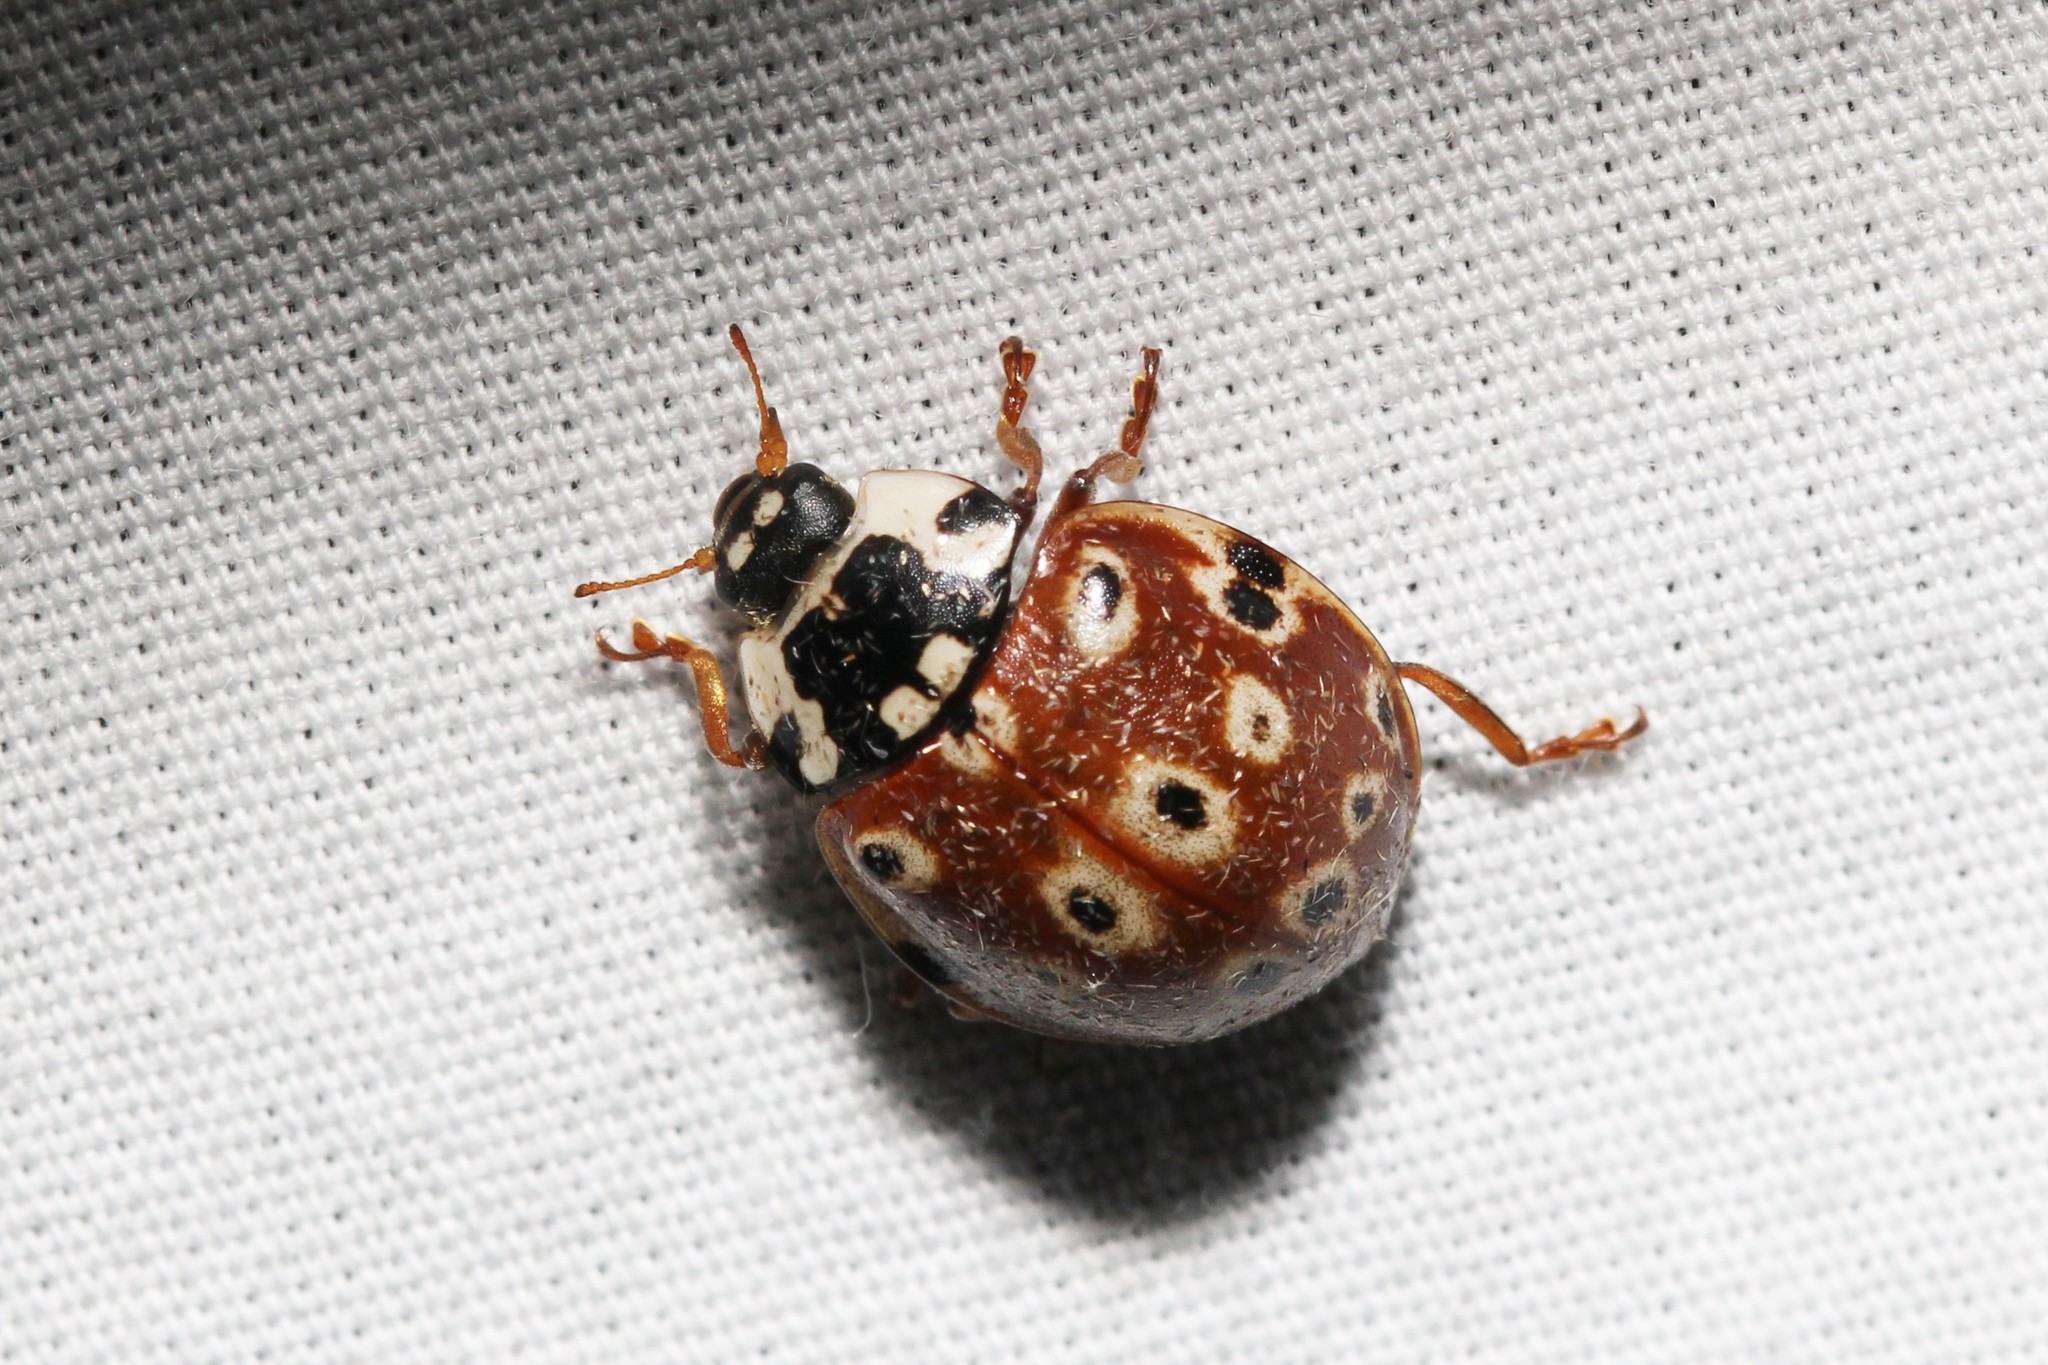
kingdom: Animalia
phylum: Arthropoda
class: Insecta
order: Coleoptera
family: Coccinellidae
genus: Anatis
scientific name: Anatis mali
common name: Eye-spotted lady beetle
